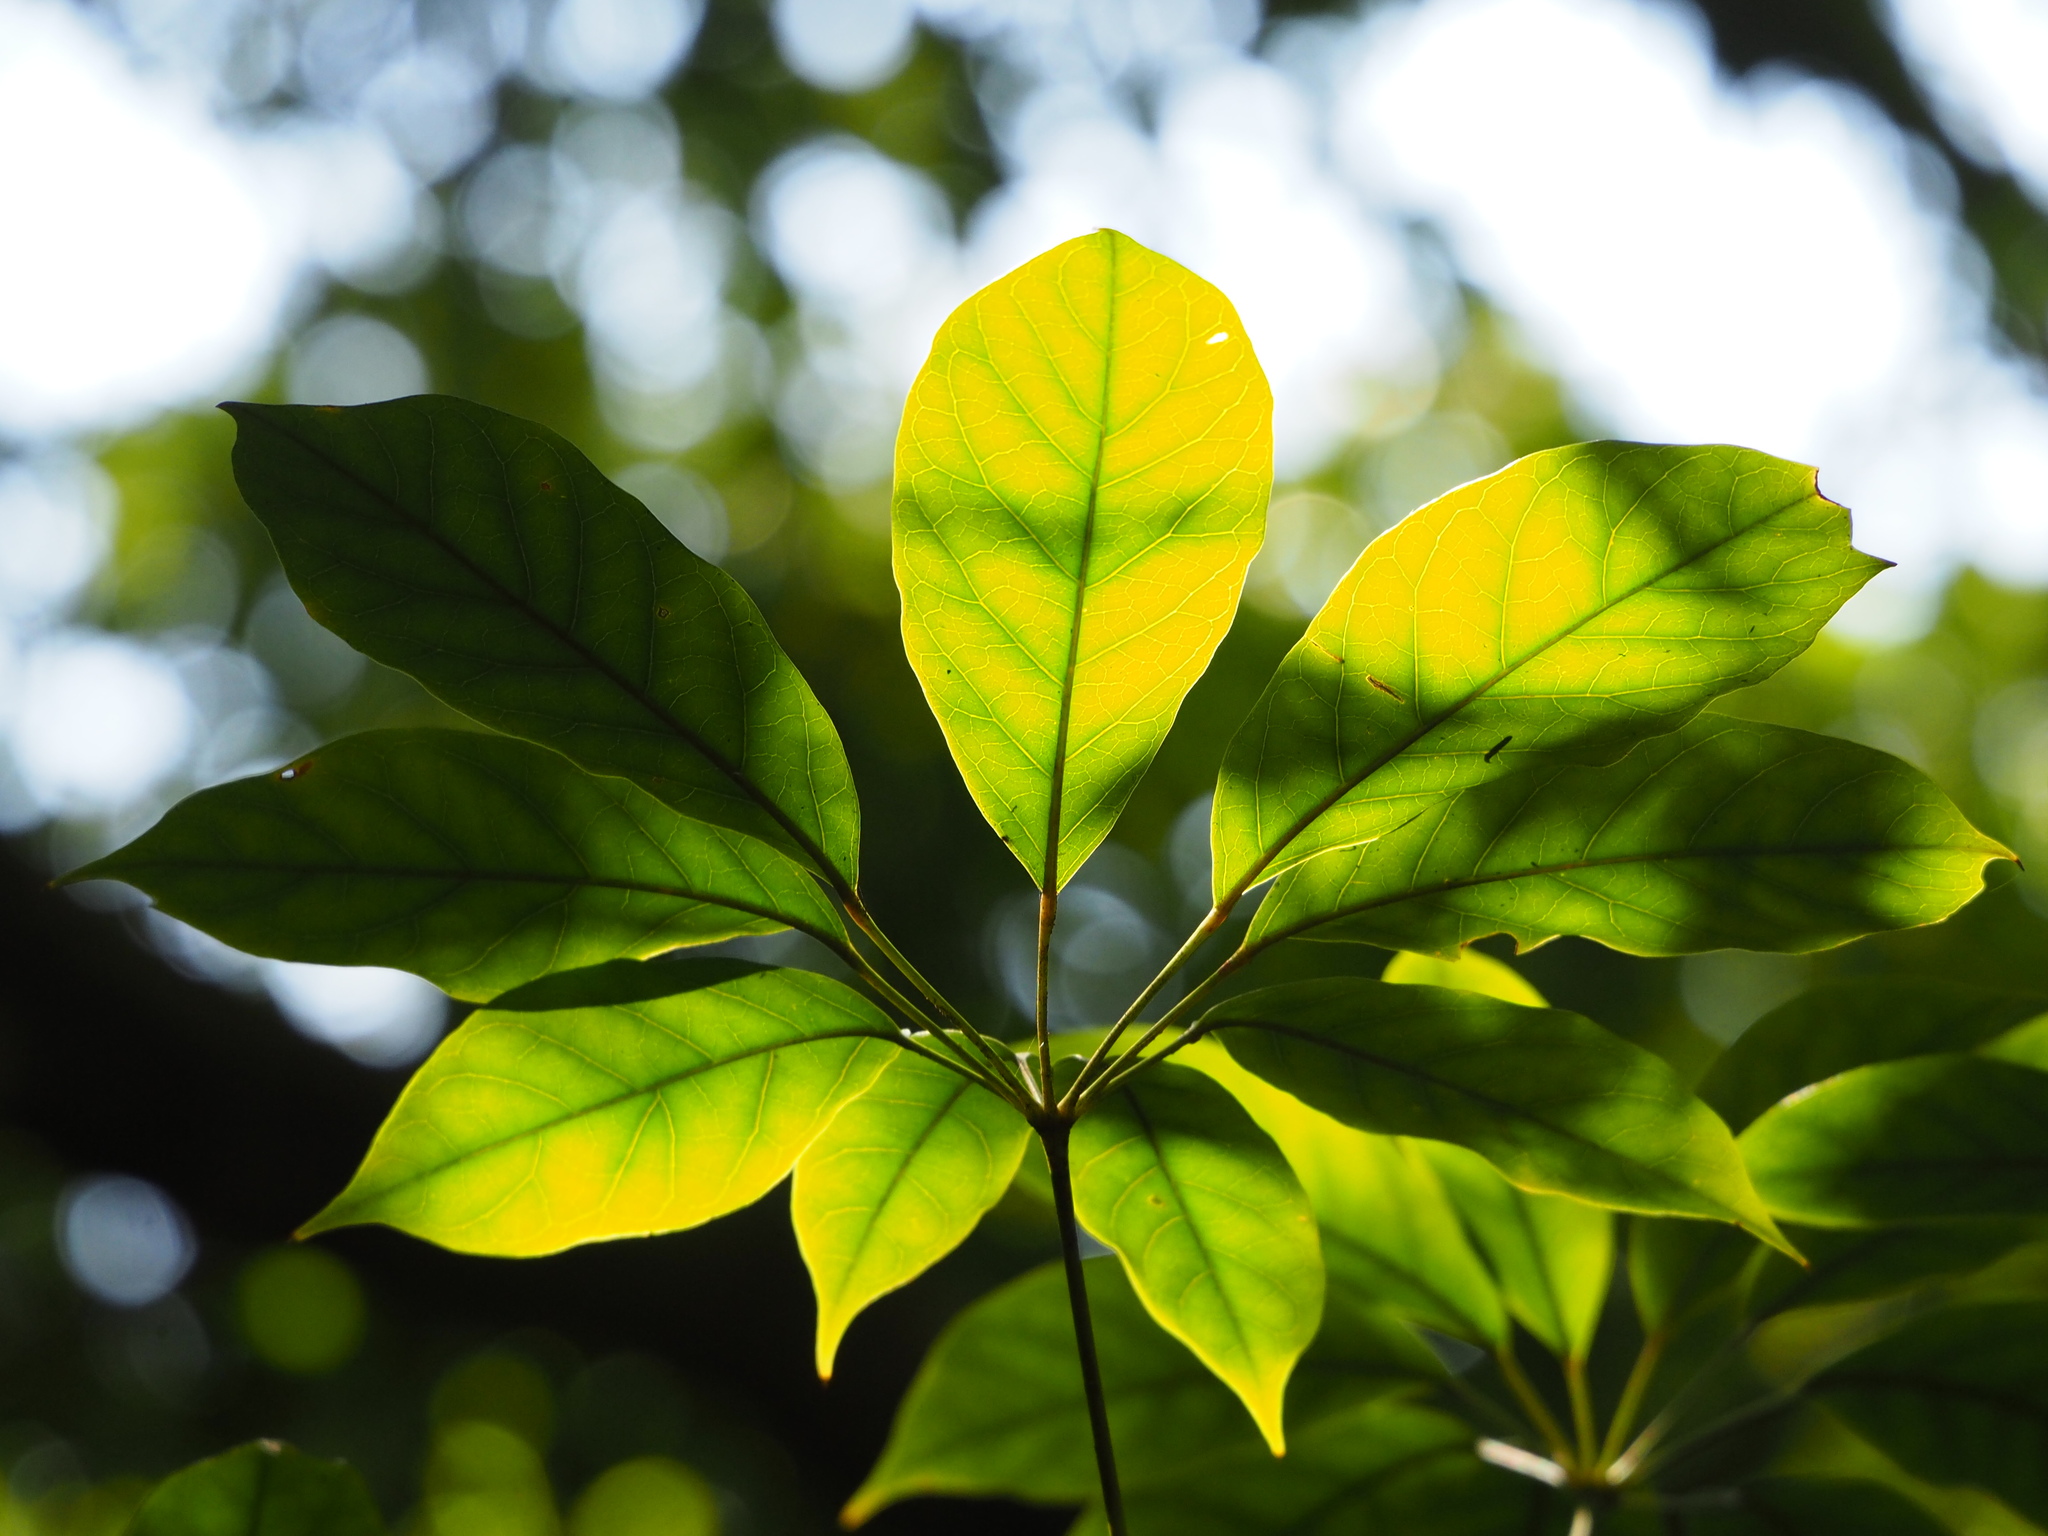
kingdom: Plantae
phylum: Tracheophyta
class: Magnoliopsida
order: Apiales
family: Araliaceae
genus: Heptapleurum
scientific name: Heptapleurum heptaphyllum
